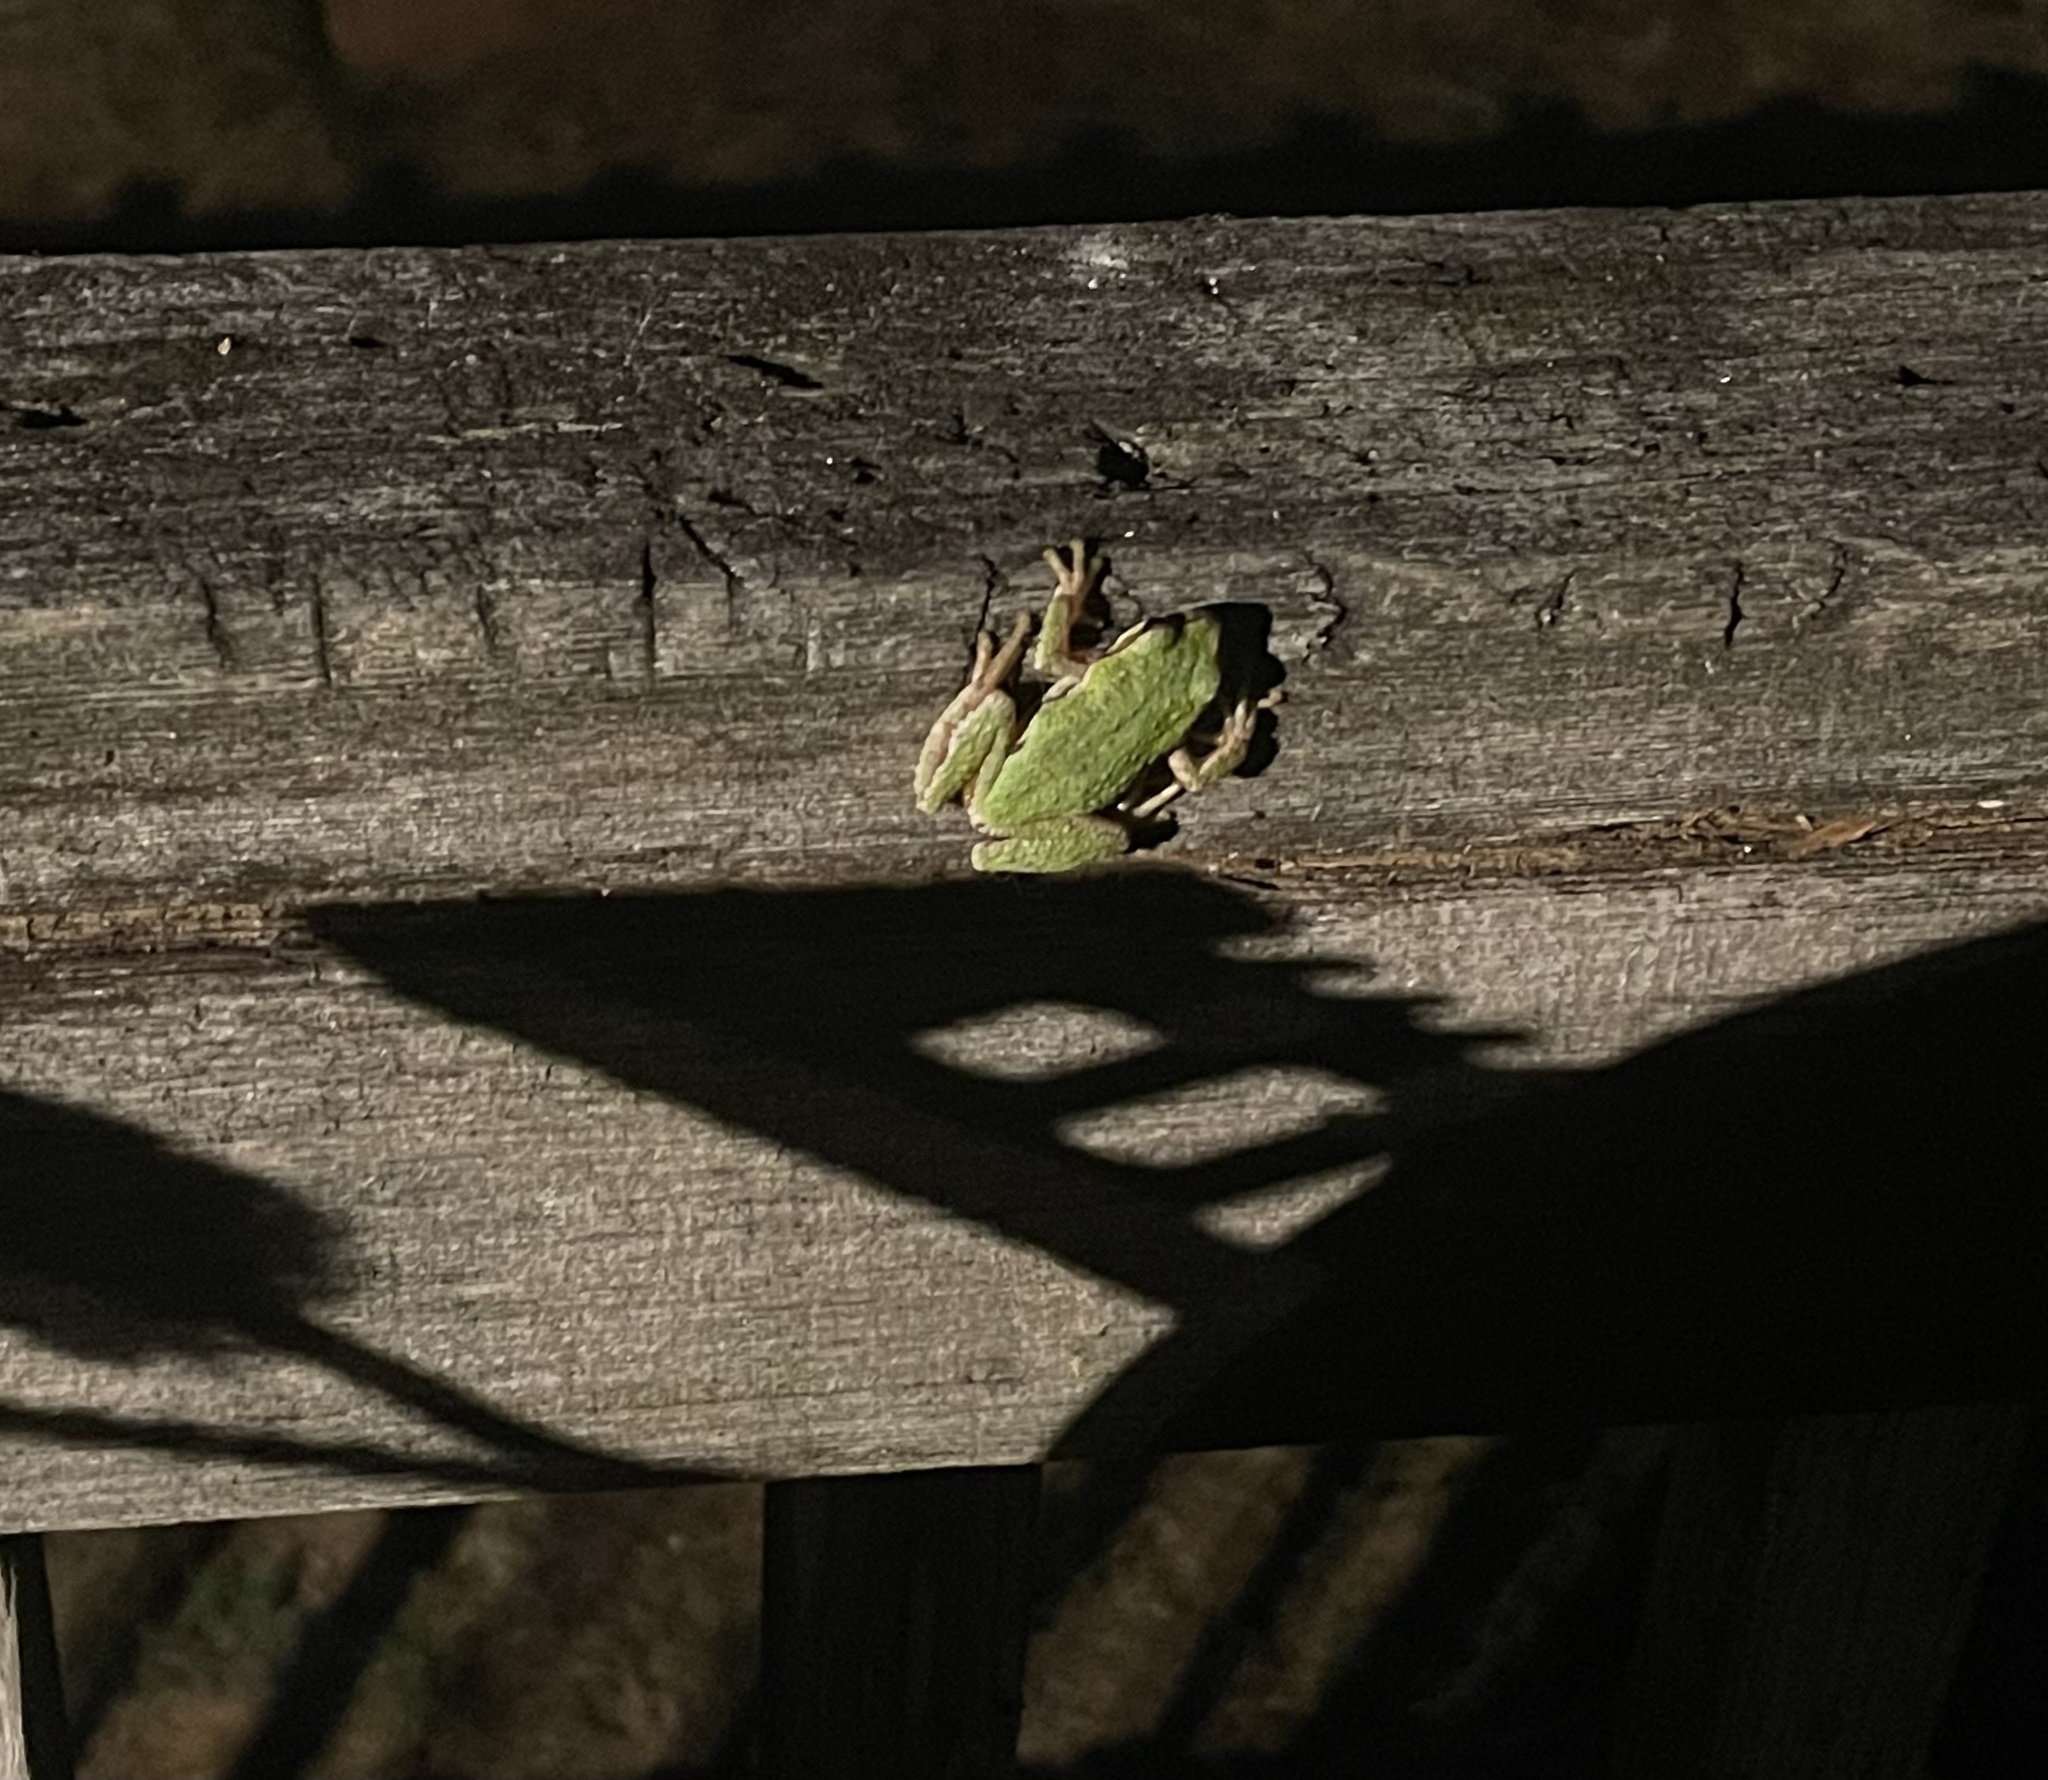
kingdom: Animalia
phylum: Chordata
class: Amphibia
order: Anura
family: Hylidae
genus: Pseudacris
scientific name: Pseudacris regilla
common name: Pacific chorus frog
